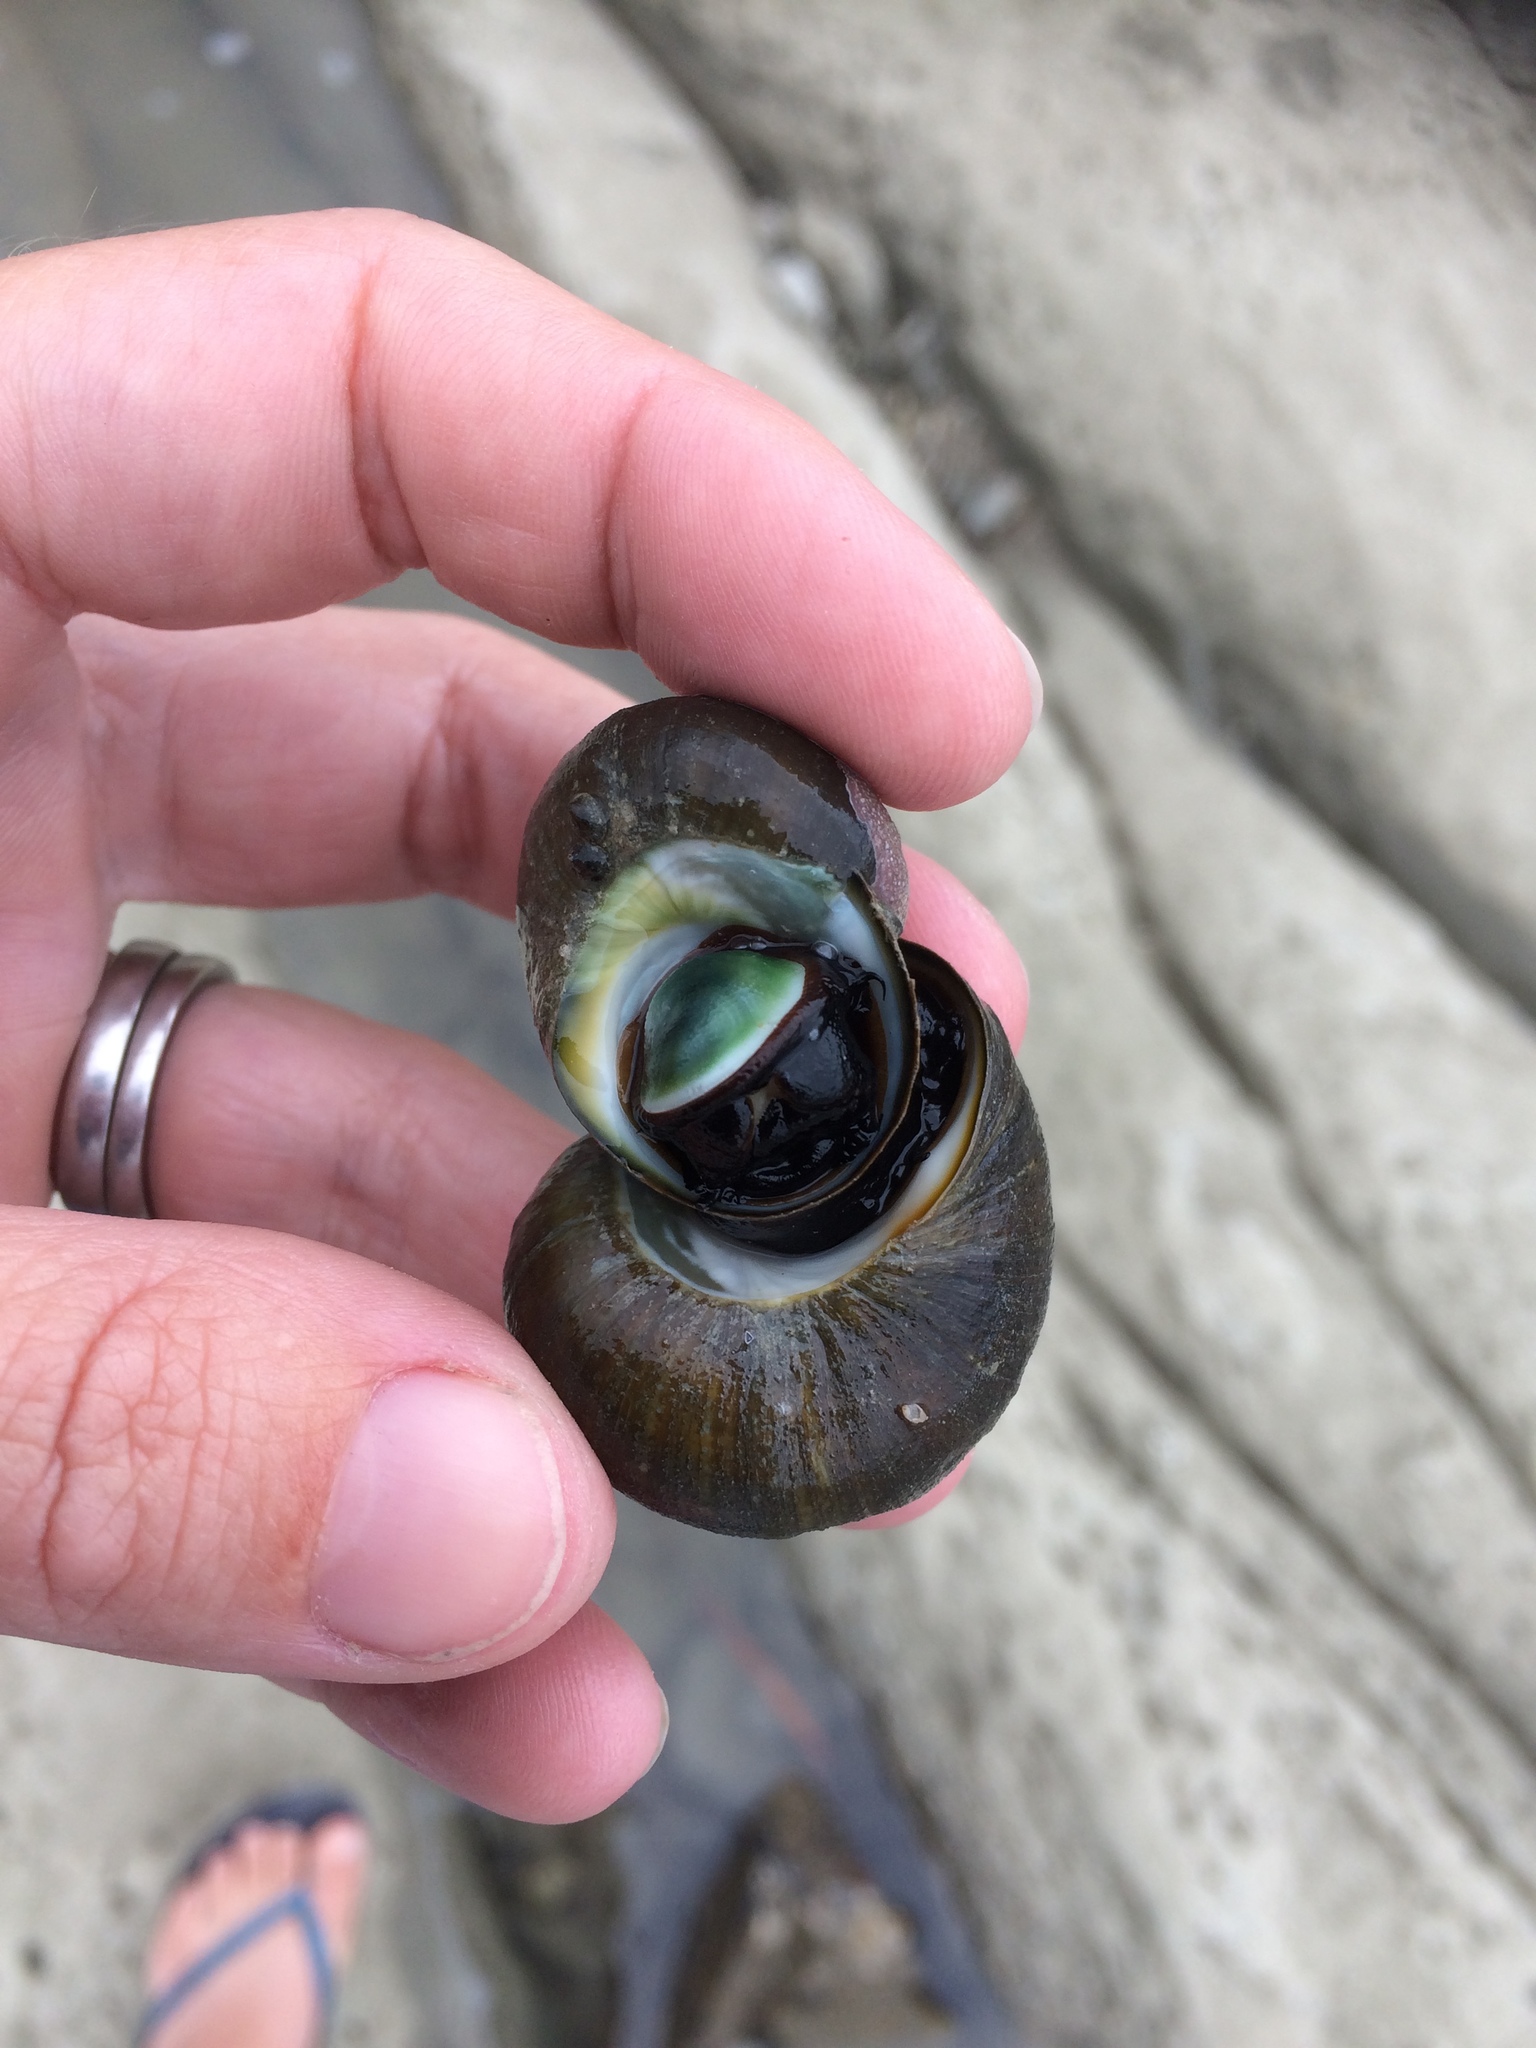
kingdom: Animalia
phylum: Mollusca
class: Gastropoda
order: Trochida
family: Turbinidae
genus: Lunella
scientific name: Lunella smaragda
